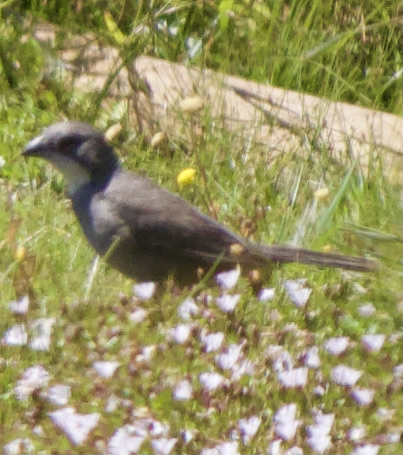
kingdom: Animalia
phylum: Chordata
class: Aves
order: Passeriformes
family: Thraupidae
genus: Diuca
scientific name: Diuca diuca
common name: Common diuca finch
